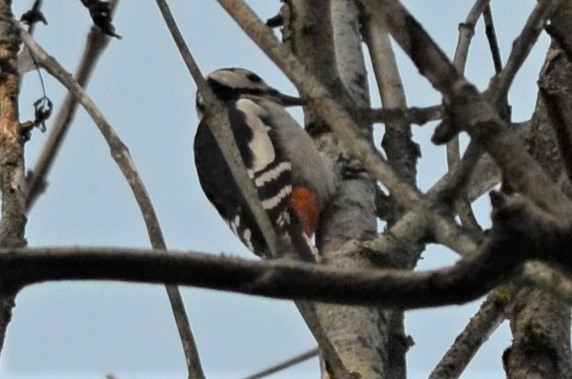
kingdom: Animalia
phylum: Chordata
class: Aves
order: Piciformes
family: Picidae
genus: Dendrocopos
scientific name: Dendrocopos major
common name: Great spotted woodpecker
